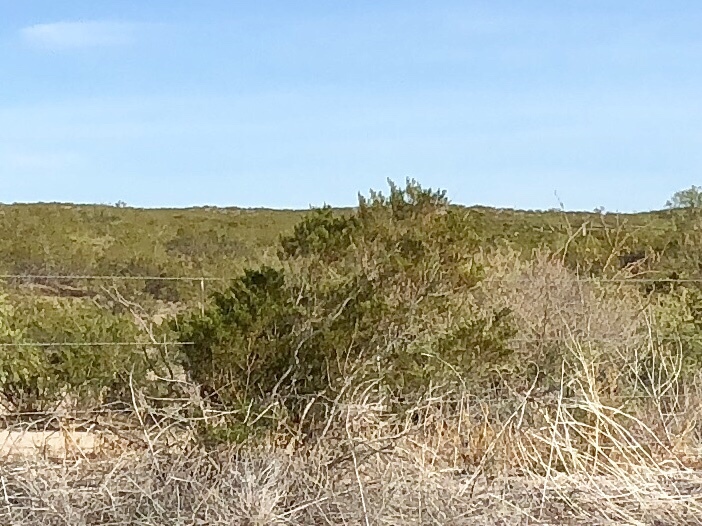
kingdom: Plantae
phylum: Tracheophyta
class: Magnoliopsida
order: Zygophyllales
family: Zygophyllaceae
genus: Larrea
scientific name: Larrea tridentata
